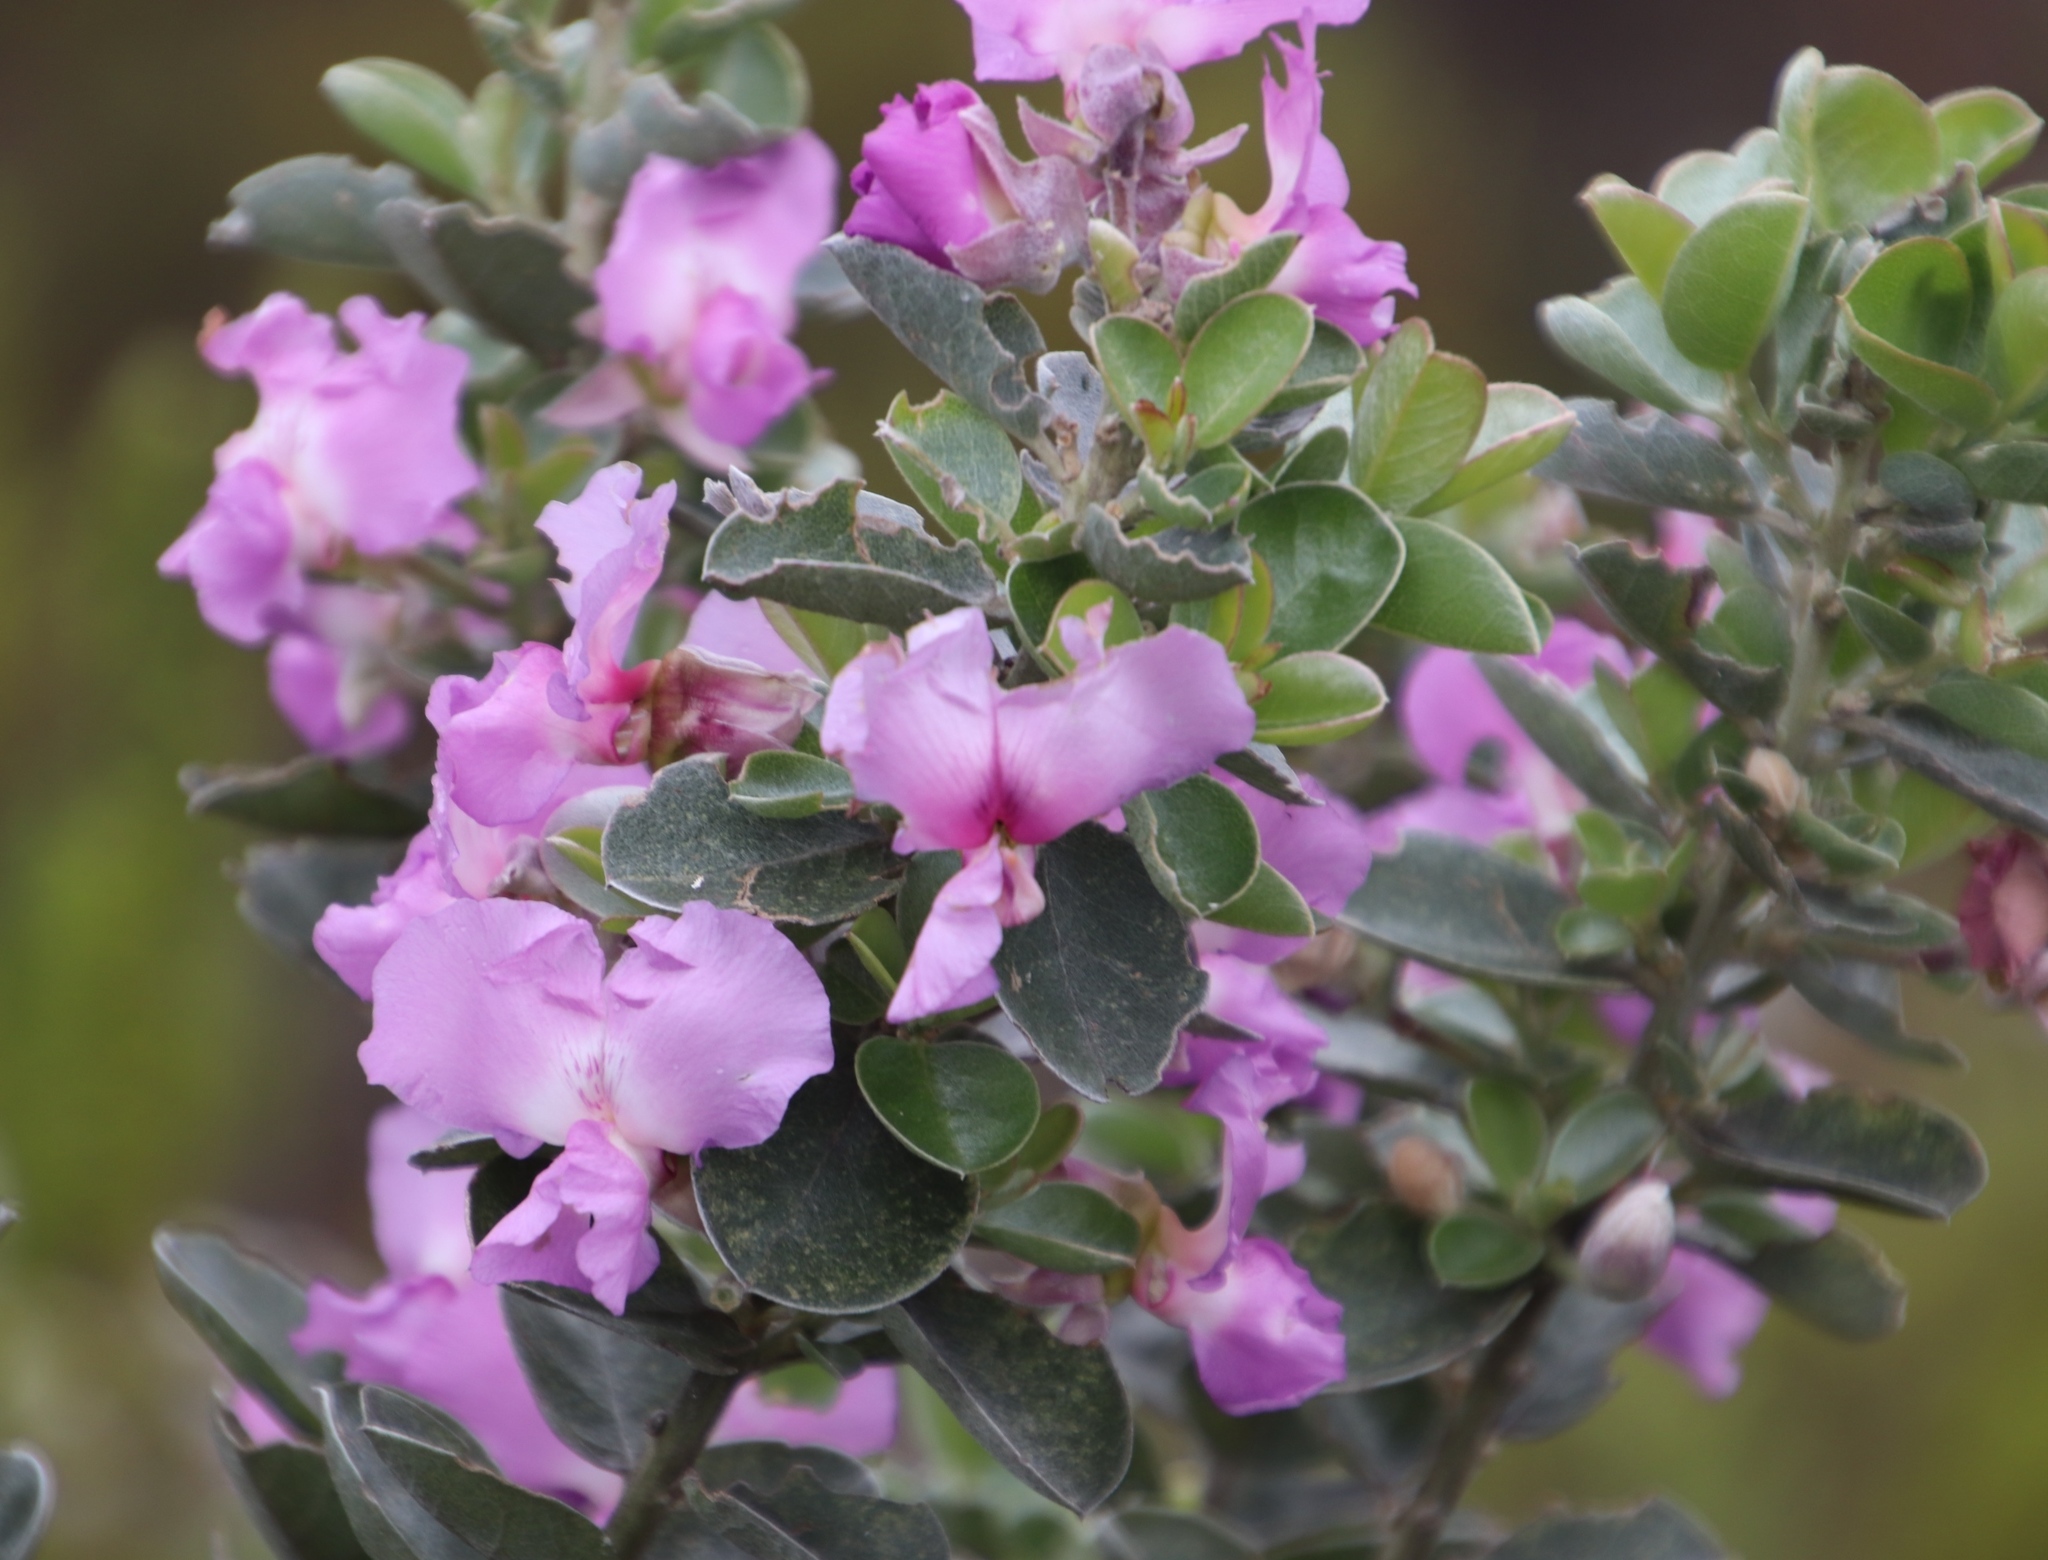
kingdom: Plantae
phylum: Tracheophyta
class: Magnoliopsida
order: Fabales
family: Fabaceae
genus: Podalyria
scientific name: Podalyria calyptrata
